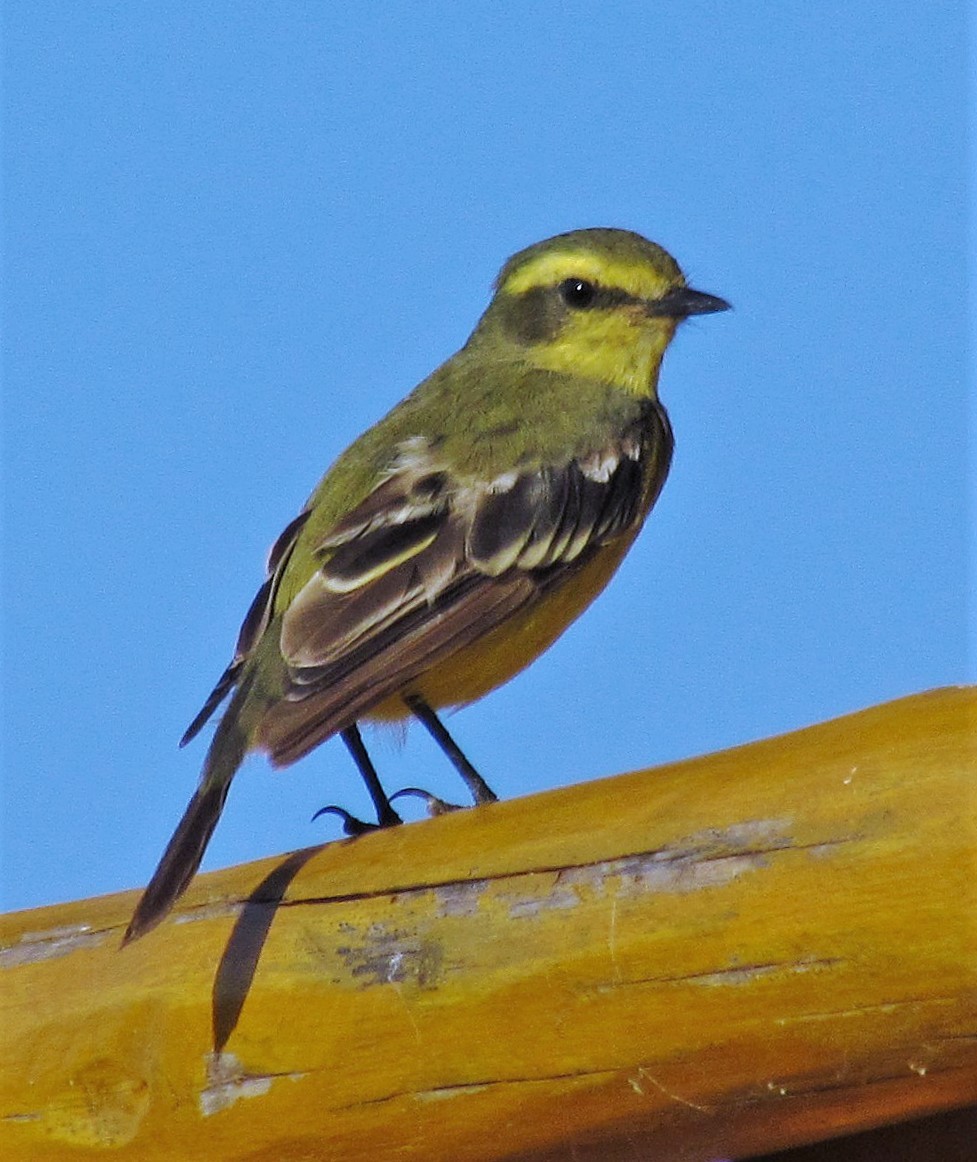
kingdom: Animalia
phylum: Chordata
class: Aves
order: Passeriformes
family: Tyrannidae
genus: Satrapa
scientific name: Satrapa icterophrys
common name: Yellow-browed tyrant
